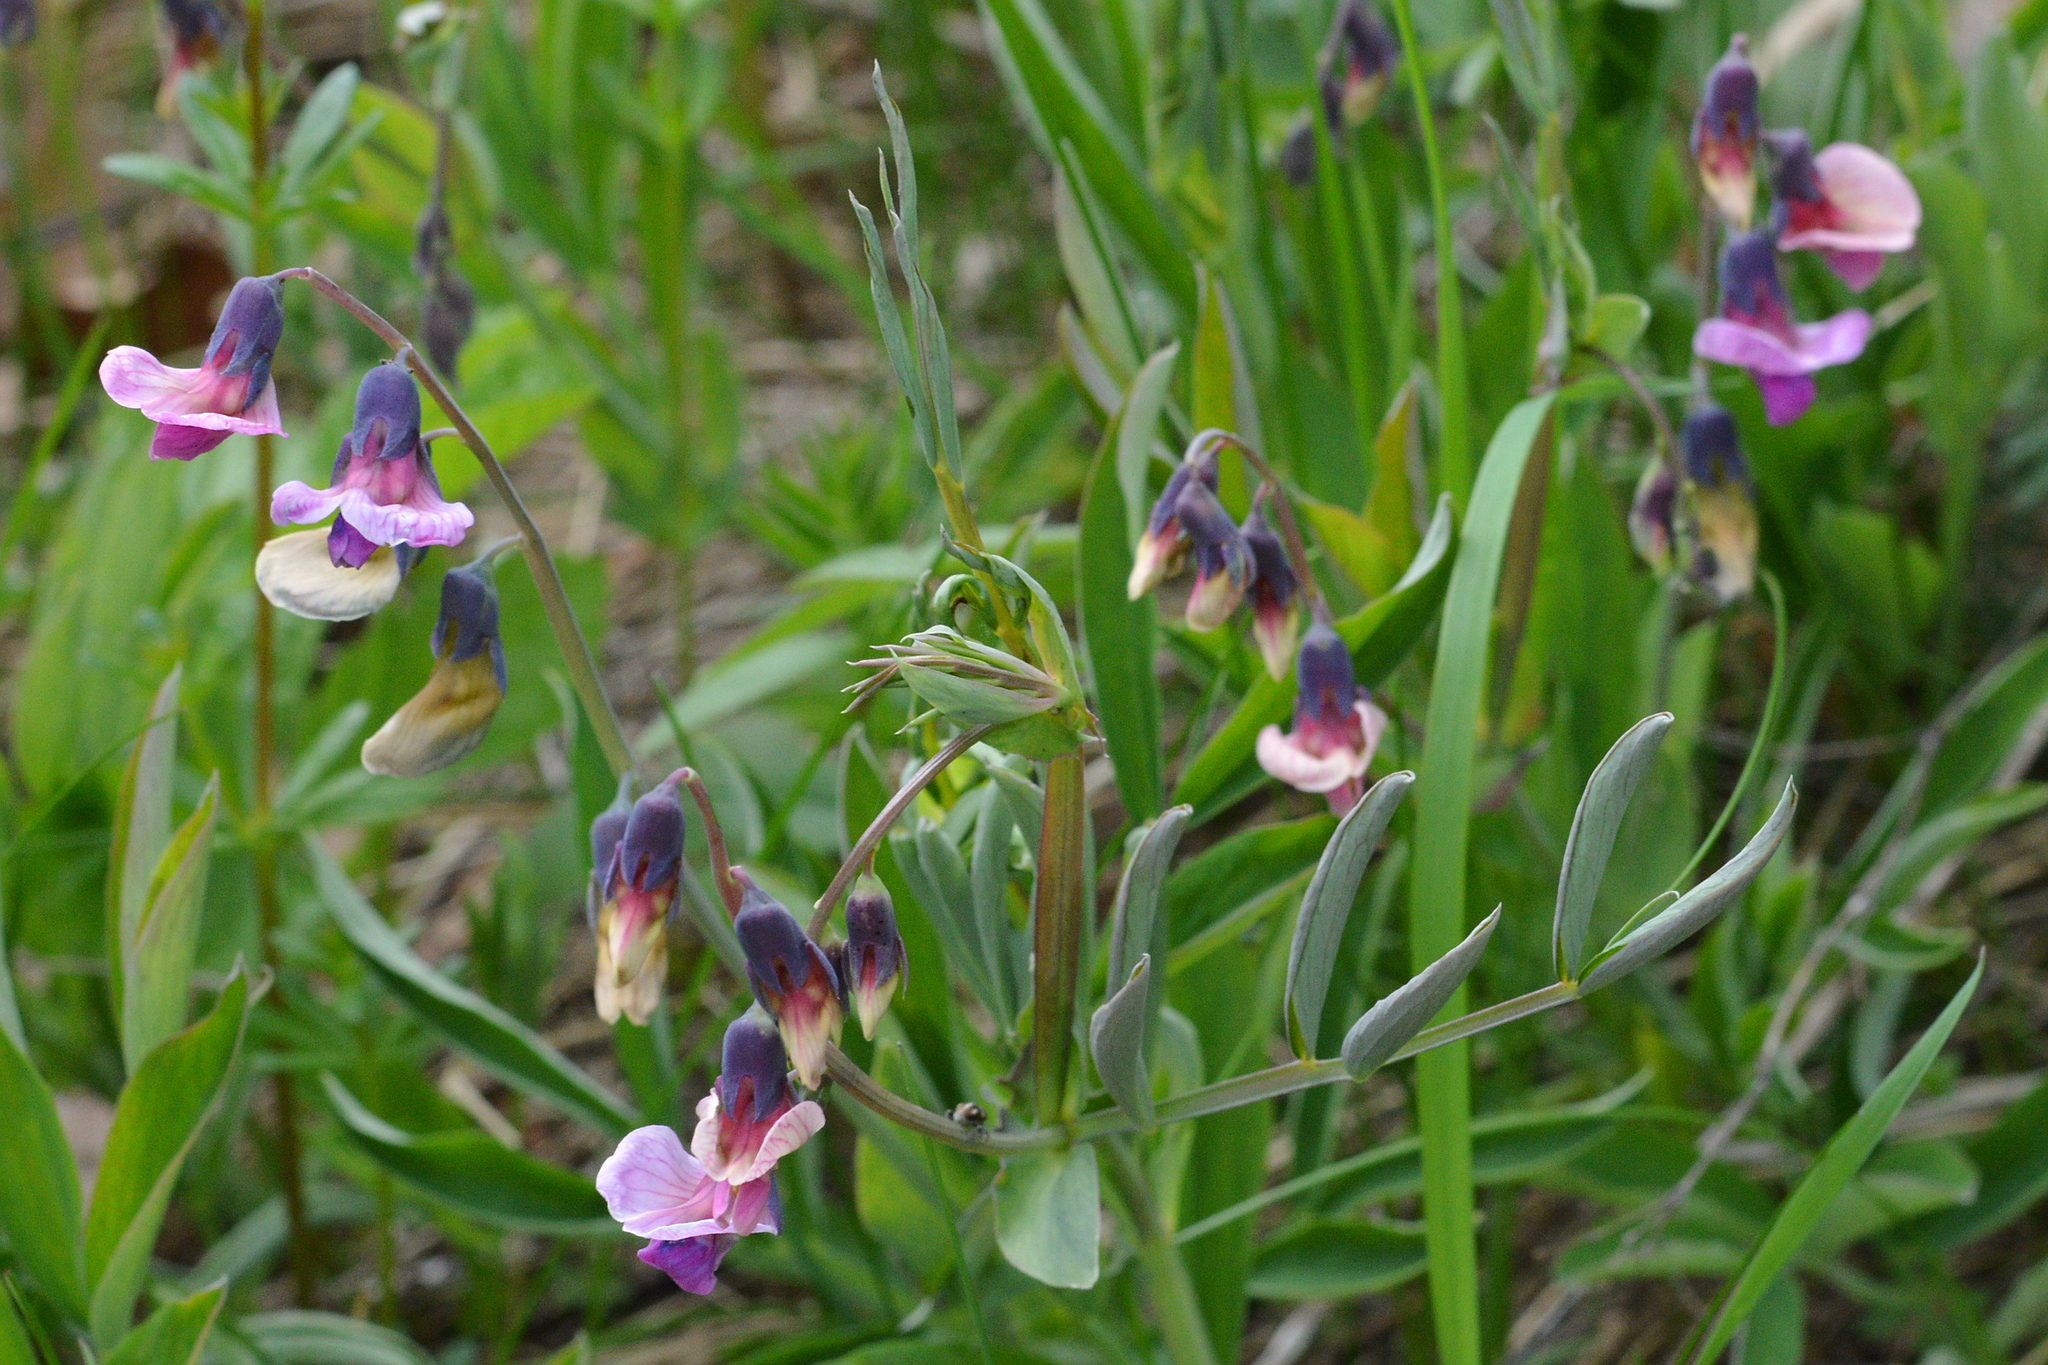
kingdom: Plantae
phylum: Tracheophyta
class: Magnoliopsida
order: Fabales
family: Fabaceae
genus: Lathyrus
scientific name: Lathyrus linifolius
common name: Bitter-vetch
